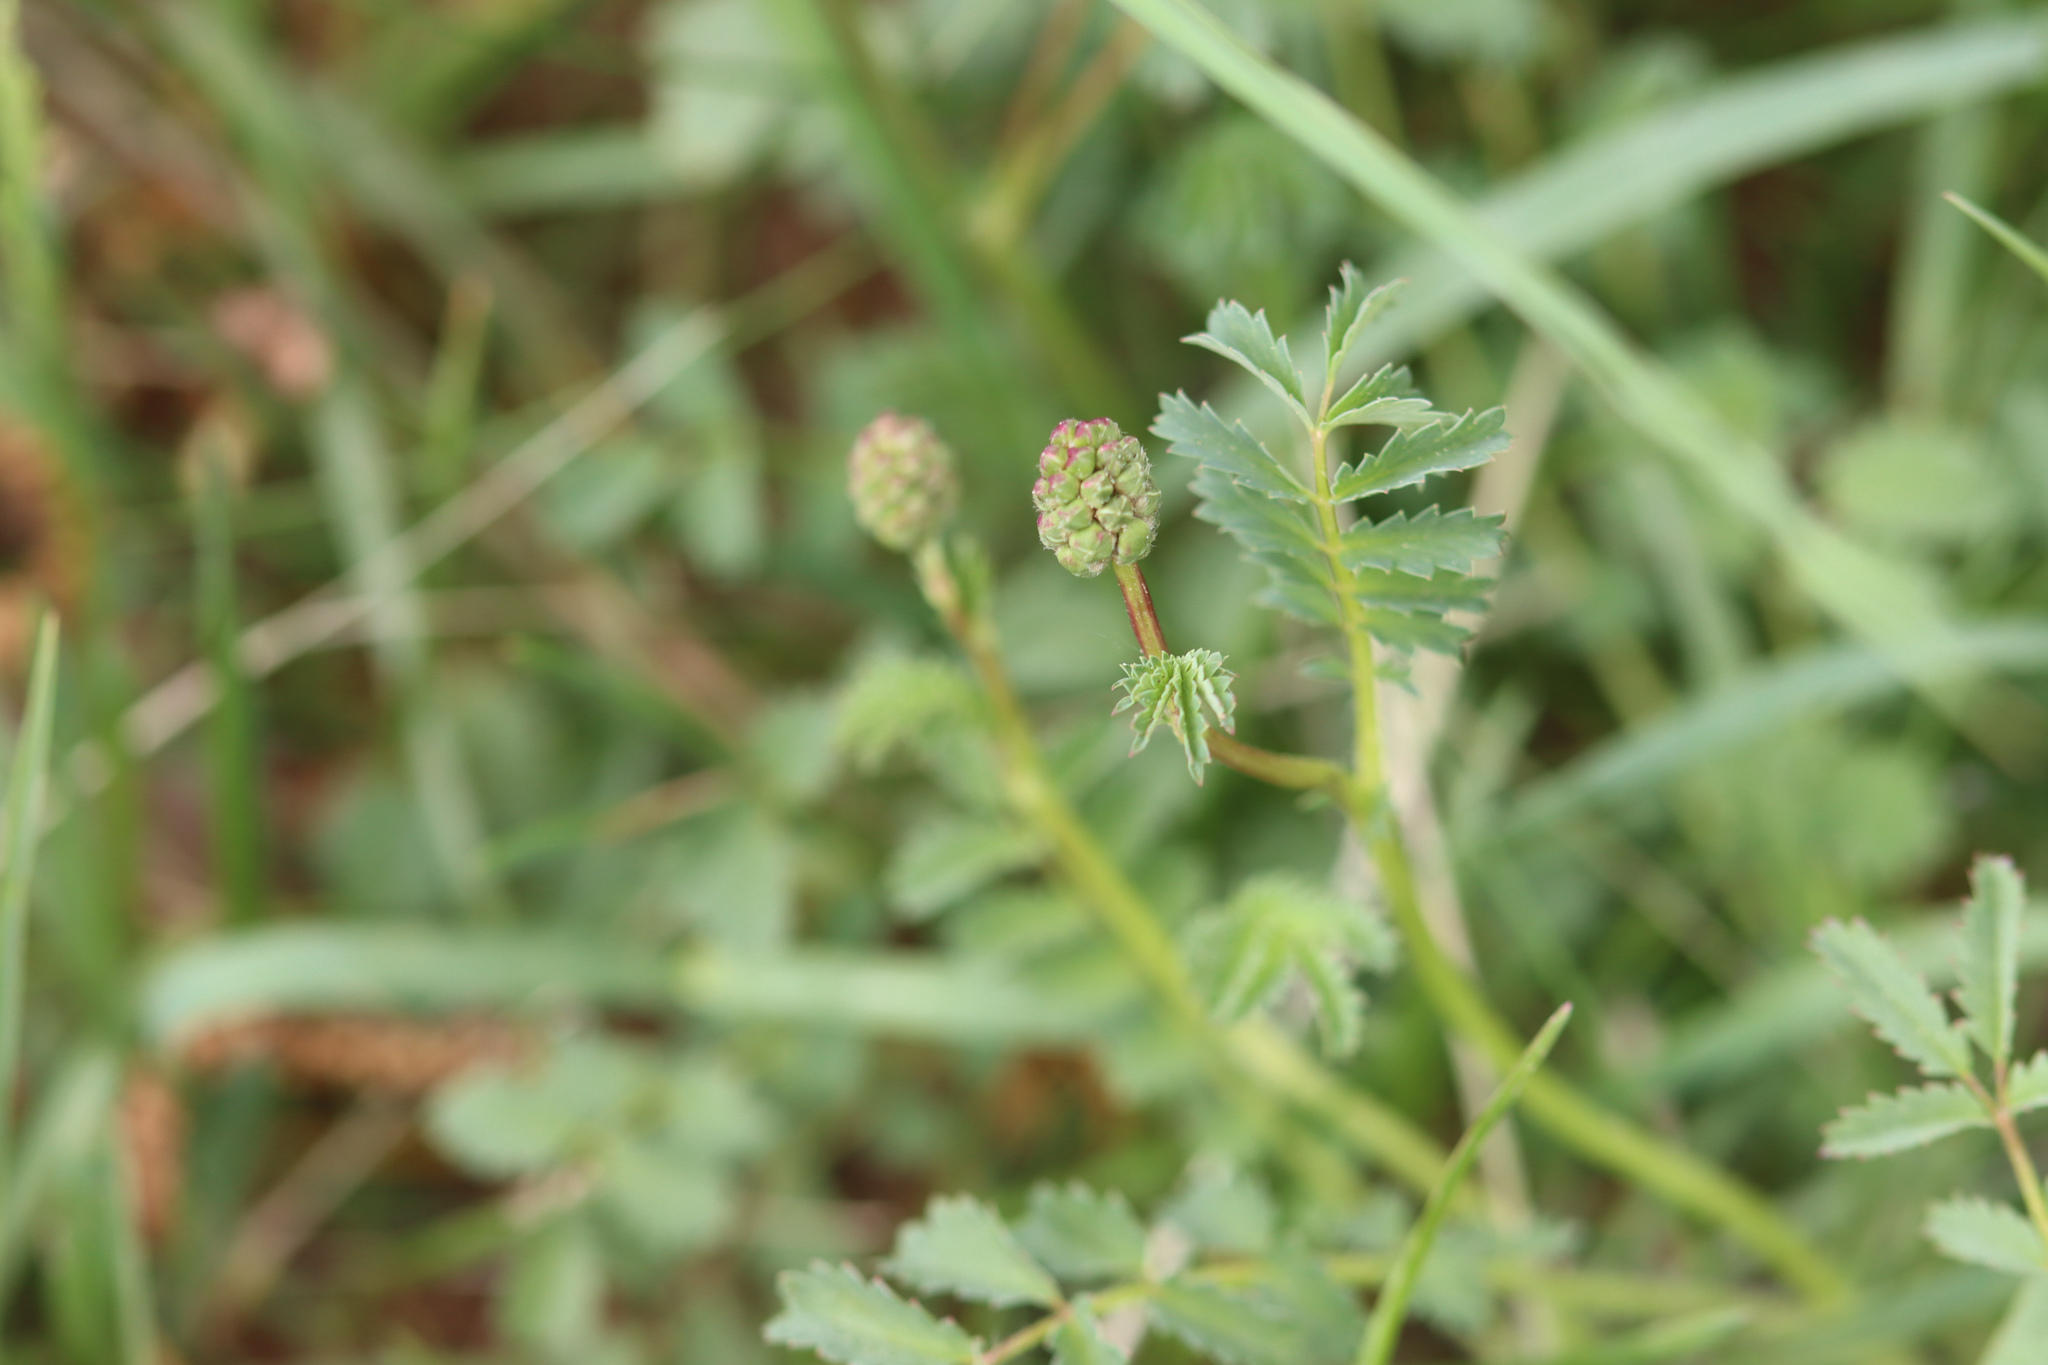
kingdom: Plantae
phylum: Tracheophyta
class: Magnoliopsida
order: Rosales
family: Rosaceae
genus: Poterium
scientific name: Poterium sanguisorba
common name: Salad burnet
